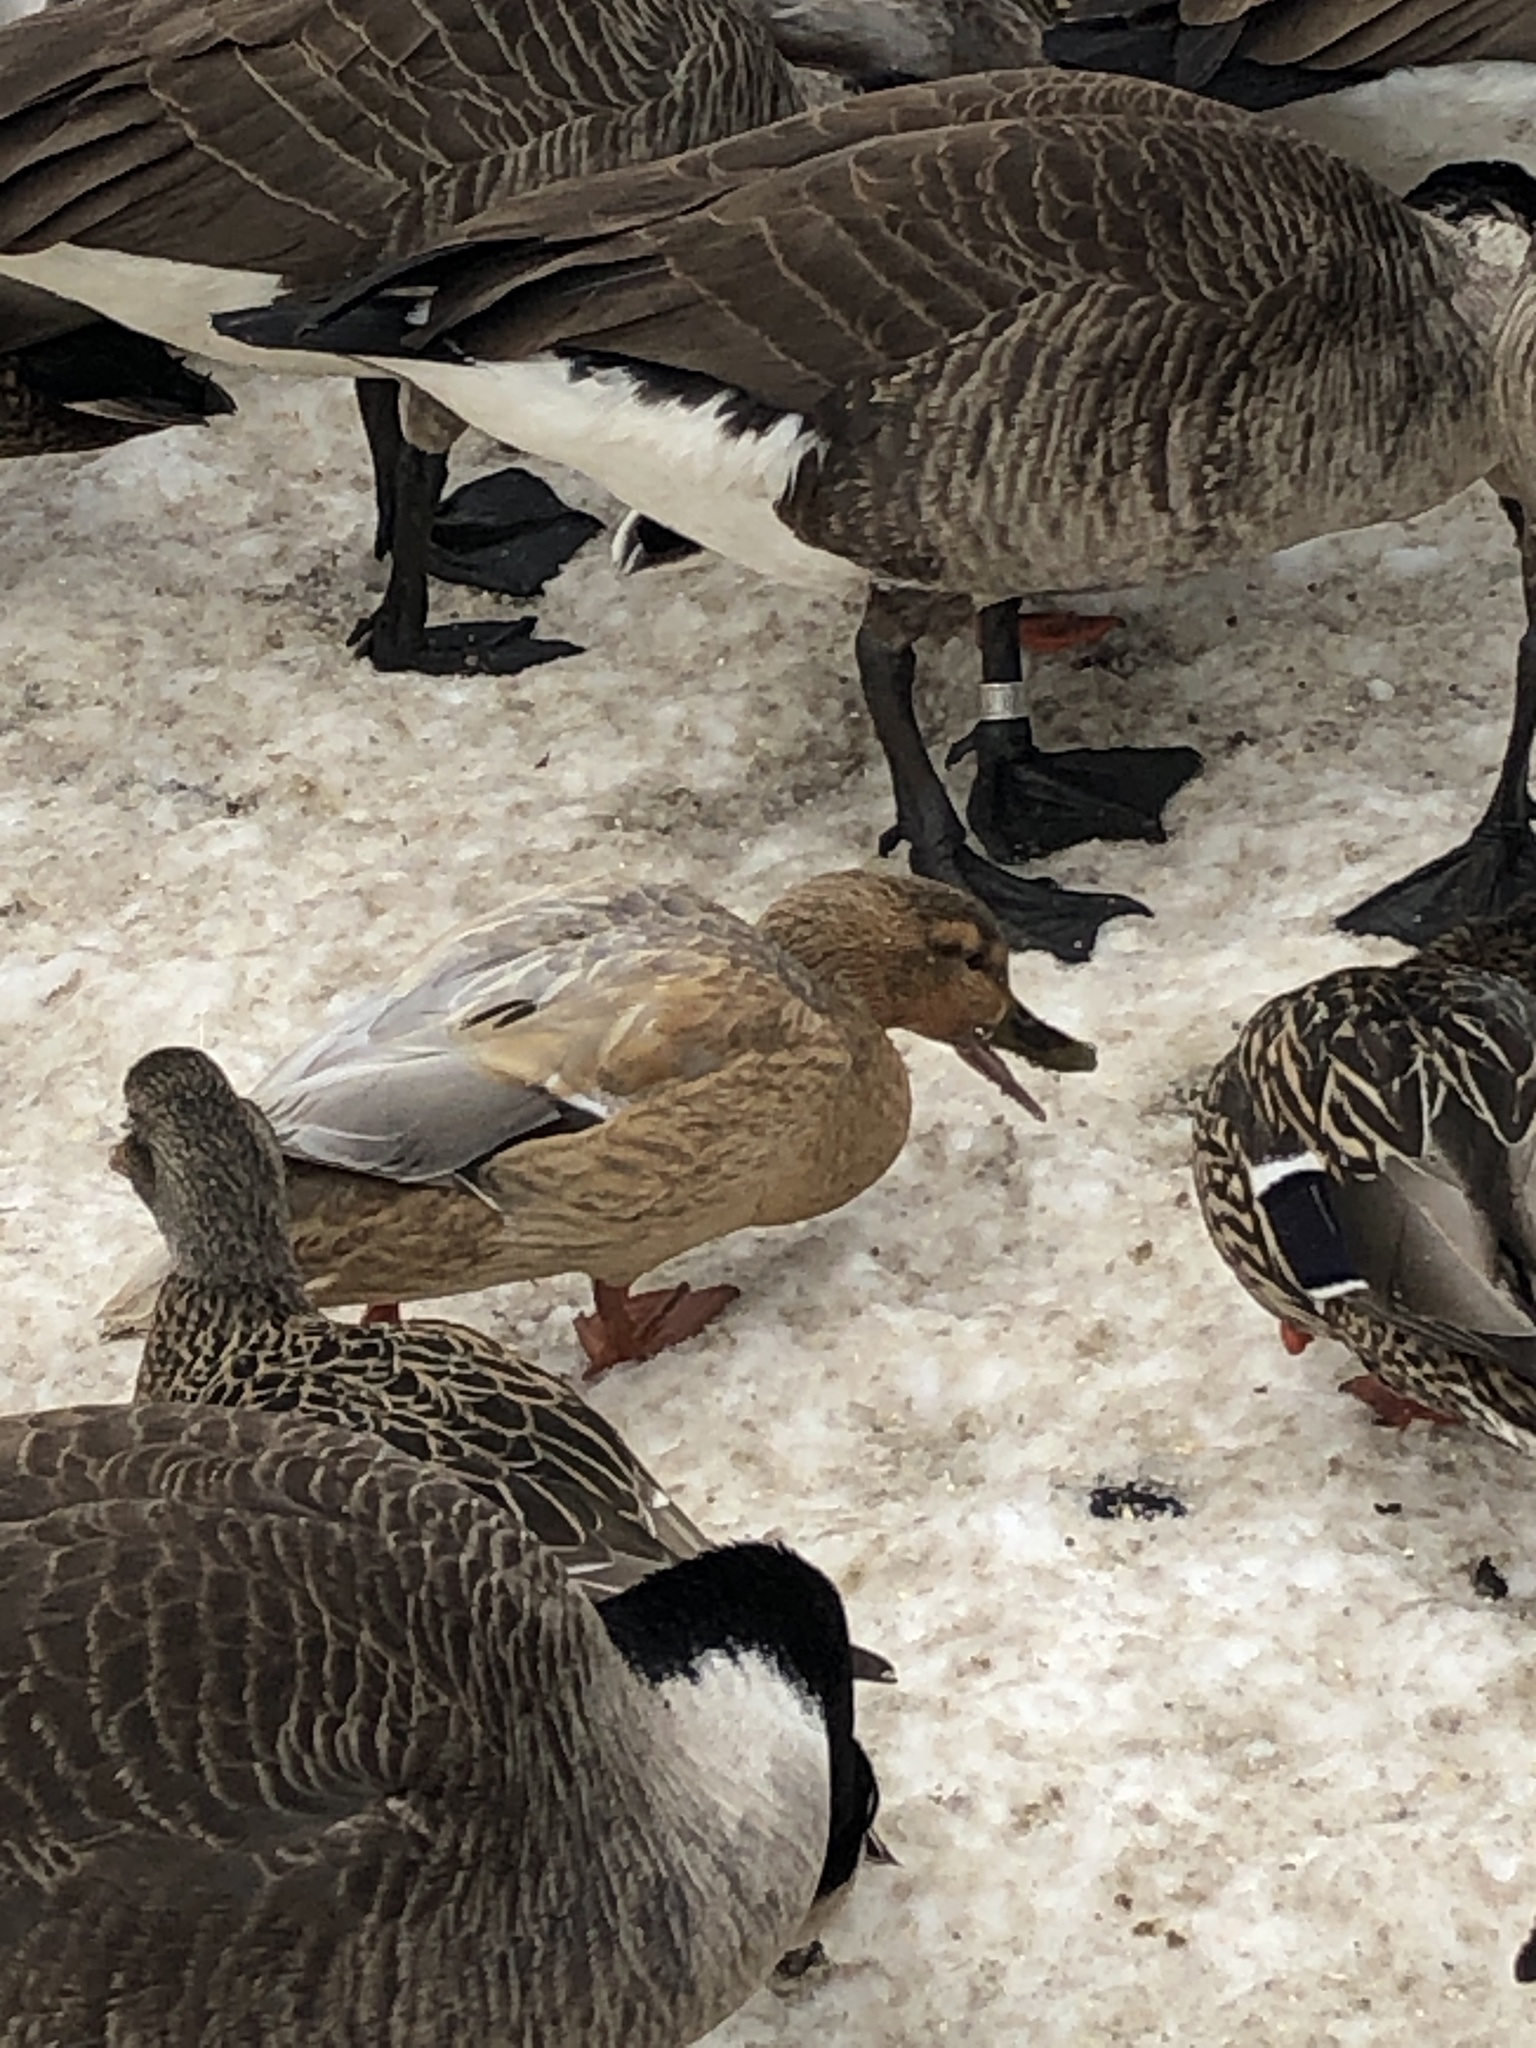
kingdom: Animalia
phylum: Chordata
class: Aves
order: Anseriformes
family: Anatidae
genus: Anas
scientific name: Anas platyrhynchos
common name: Mallard
